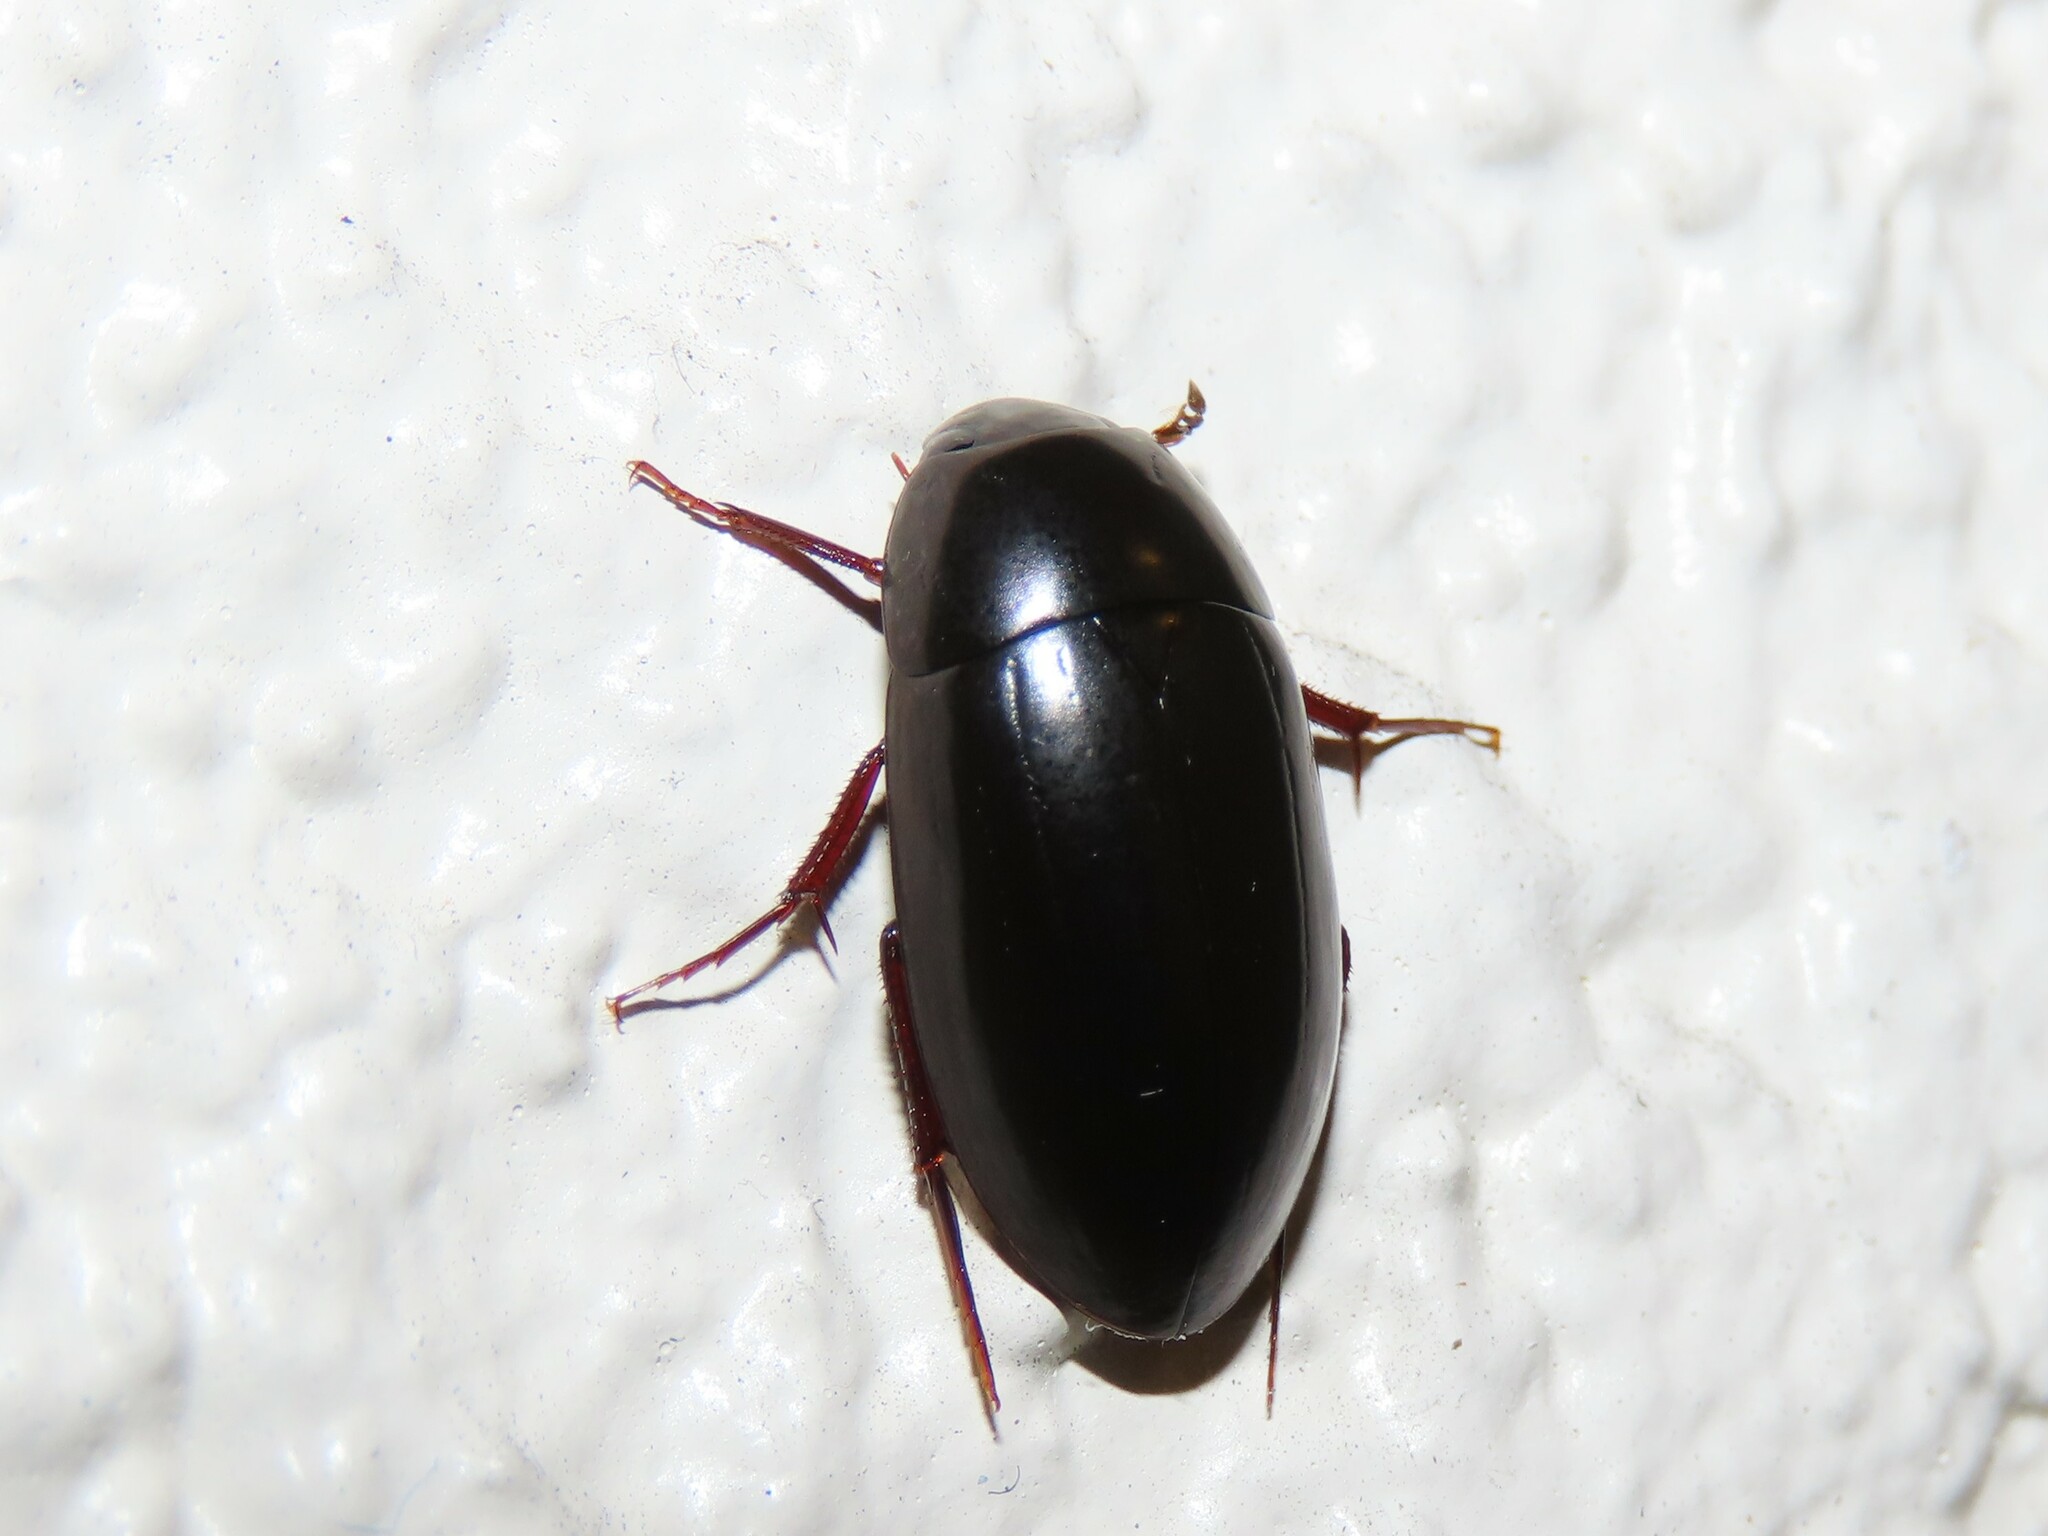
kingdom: Animalia
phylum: Arthropoda
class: Insecta
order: Coleoptera
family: Hydrophilidae
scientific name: Hydrophilidae
